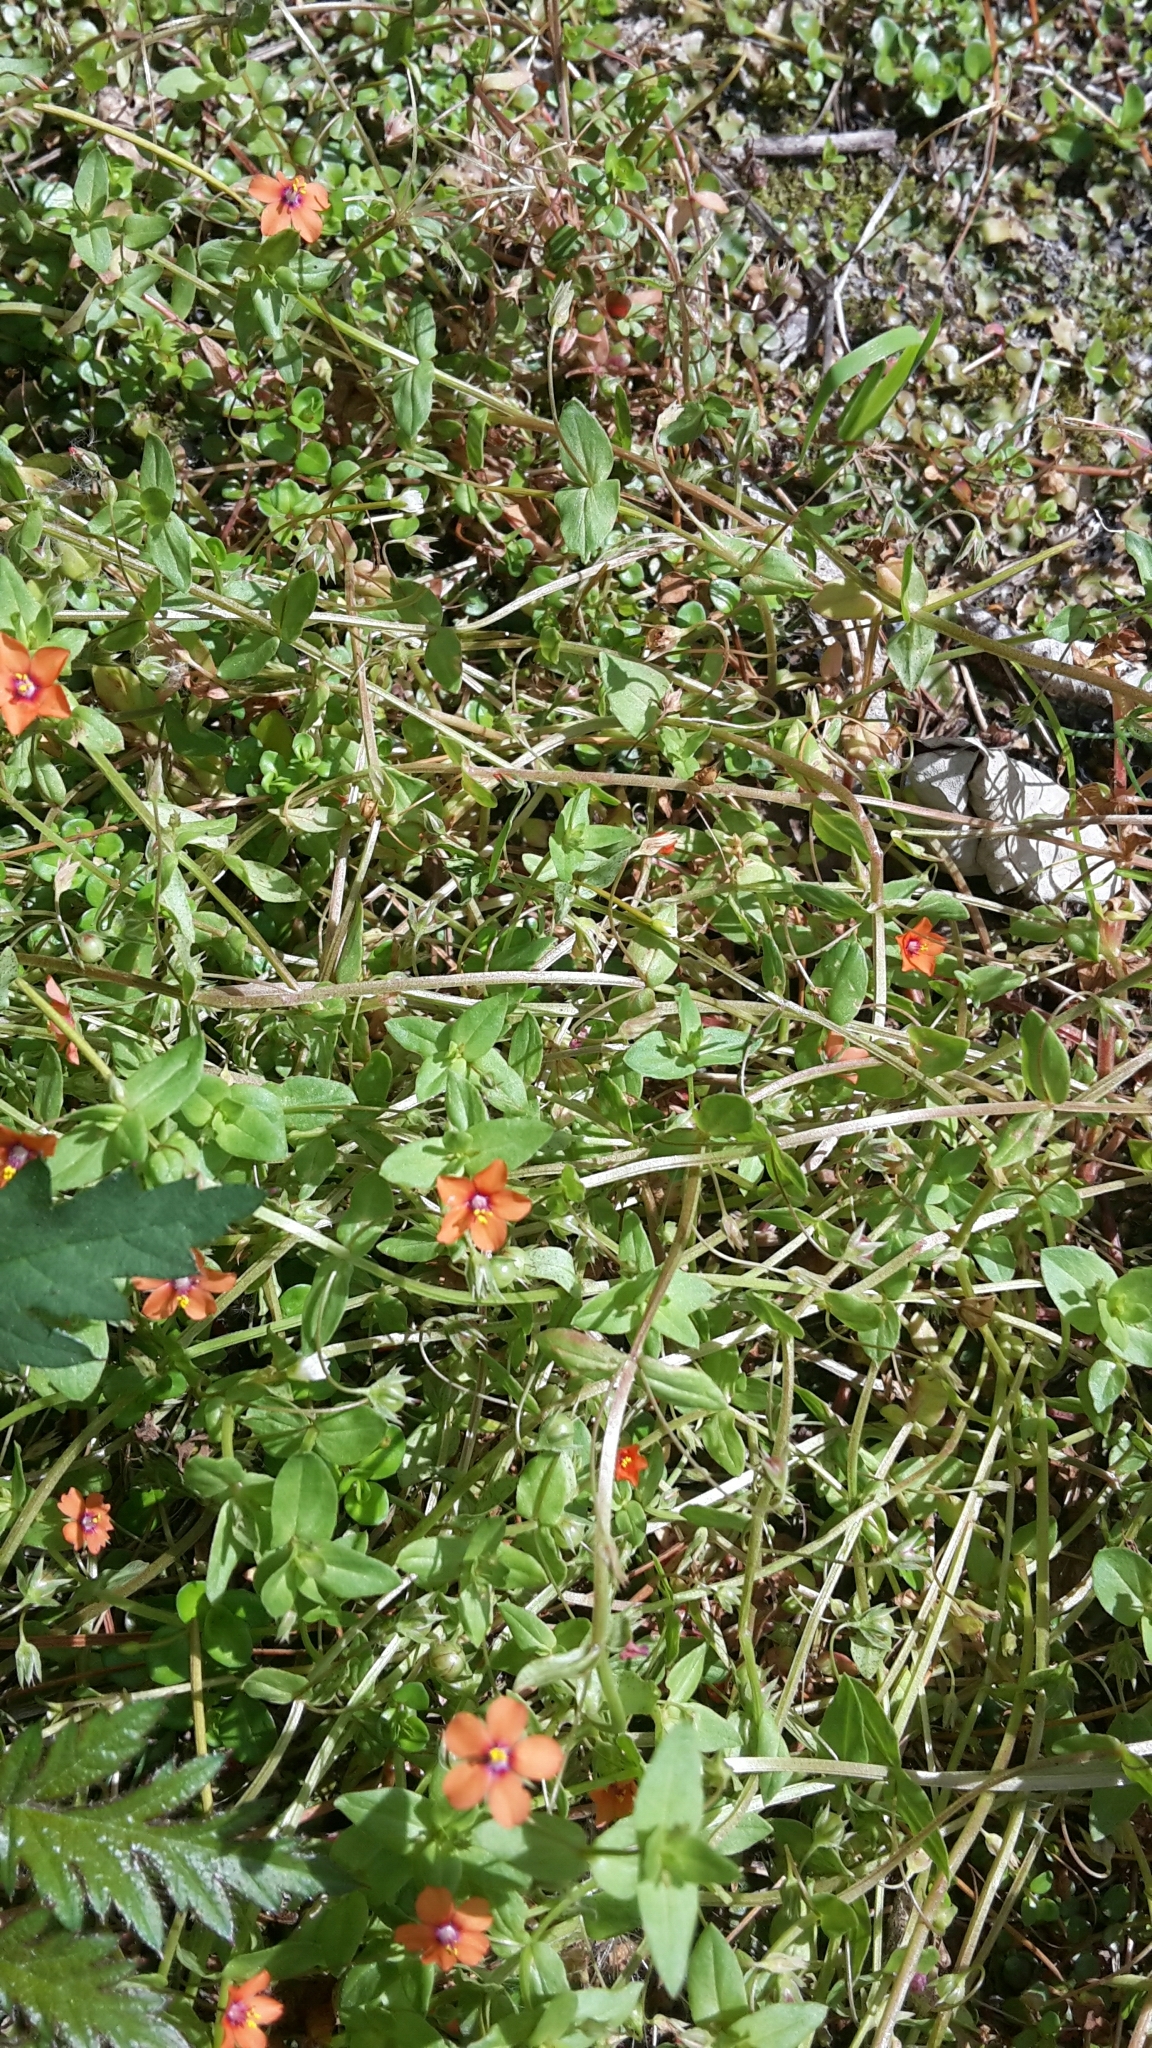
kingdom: Plantae
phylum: Tracheophyta
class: Magnoliopsida
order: Ericales
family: Primulaceae
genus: Lysimachia
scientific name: Lysimachia arvensis
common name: Scarlet pimpernel
